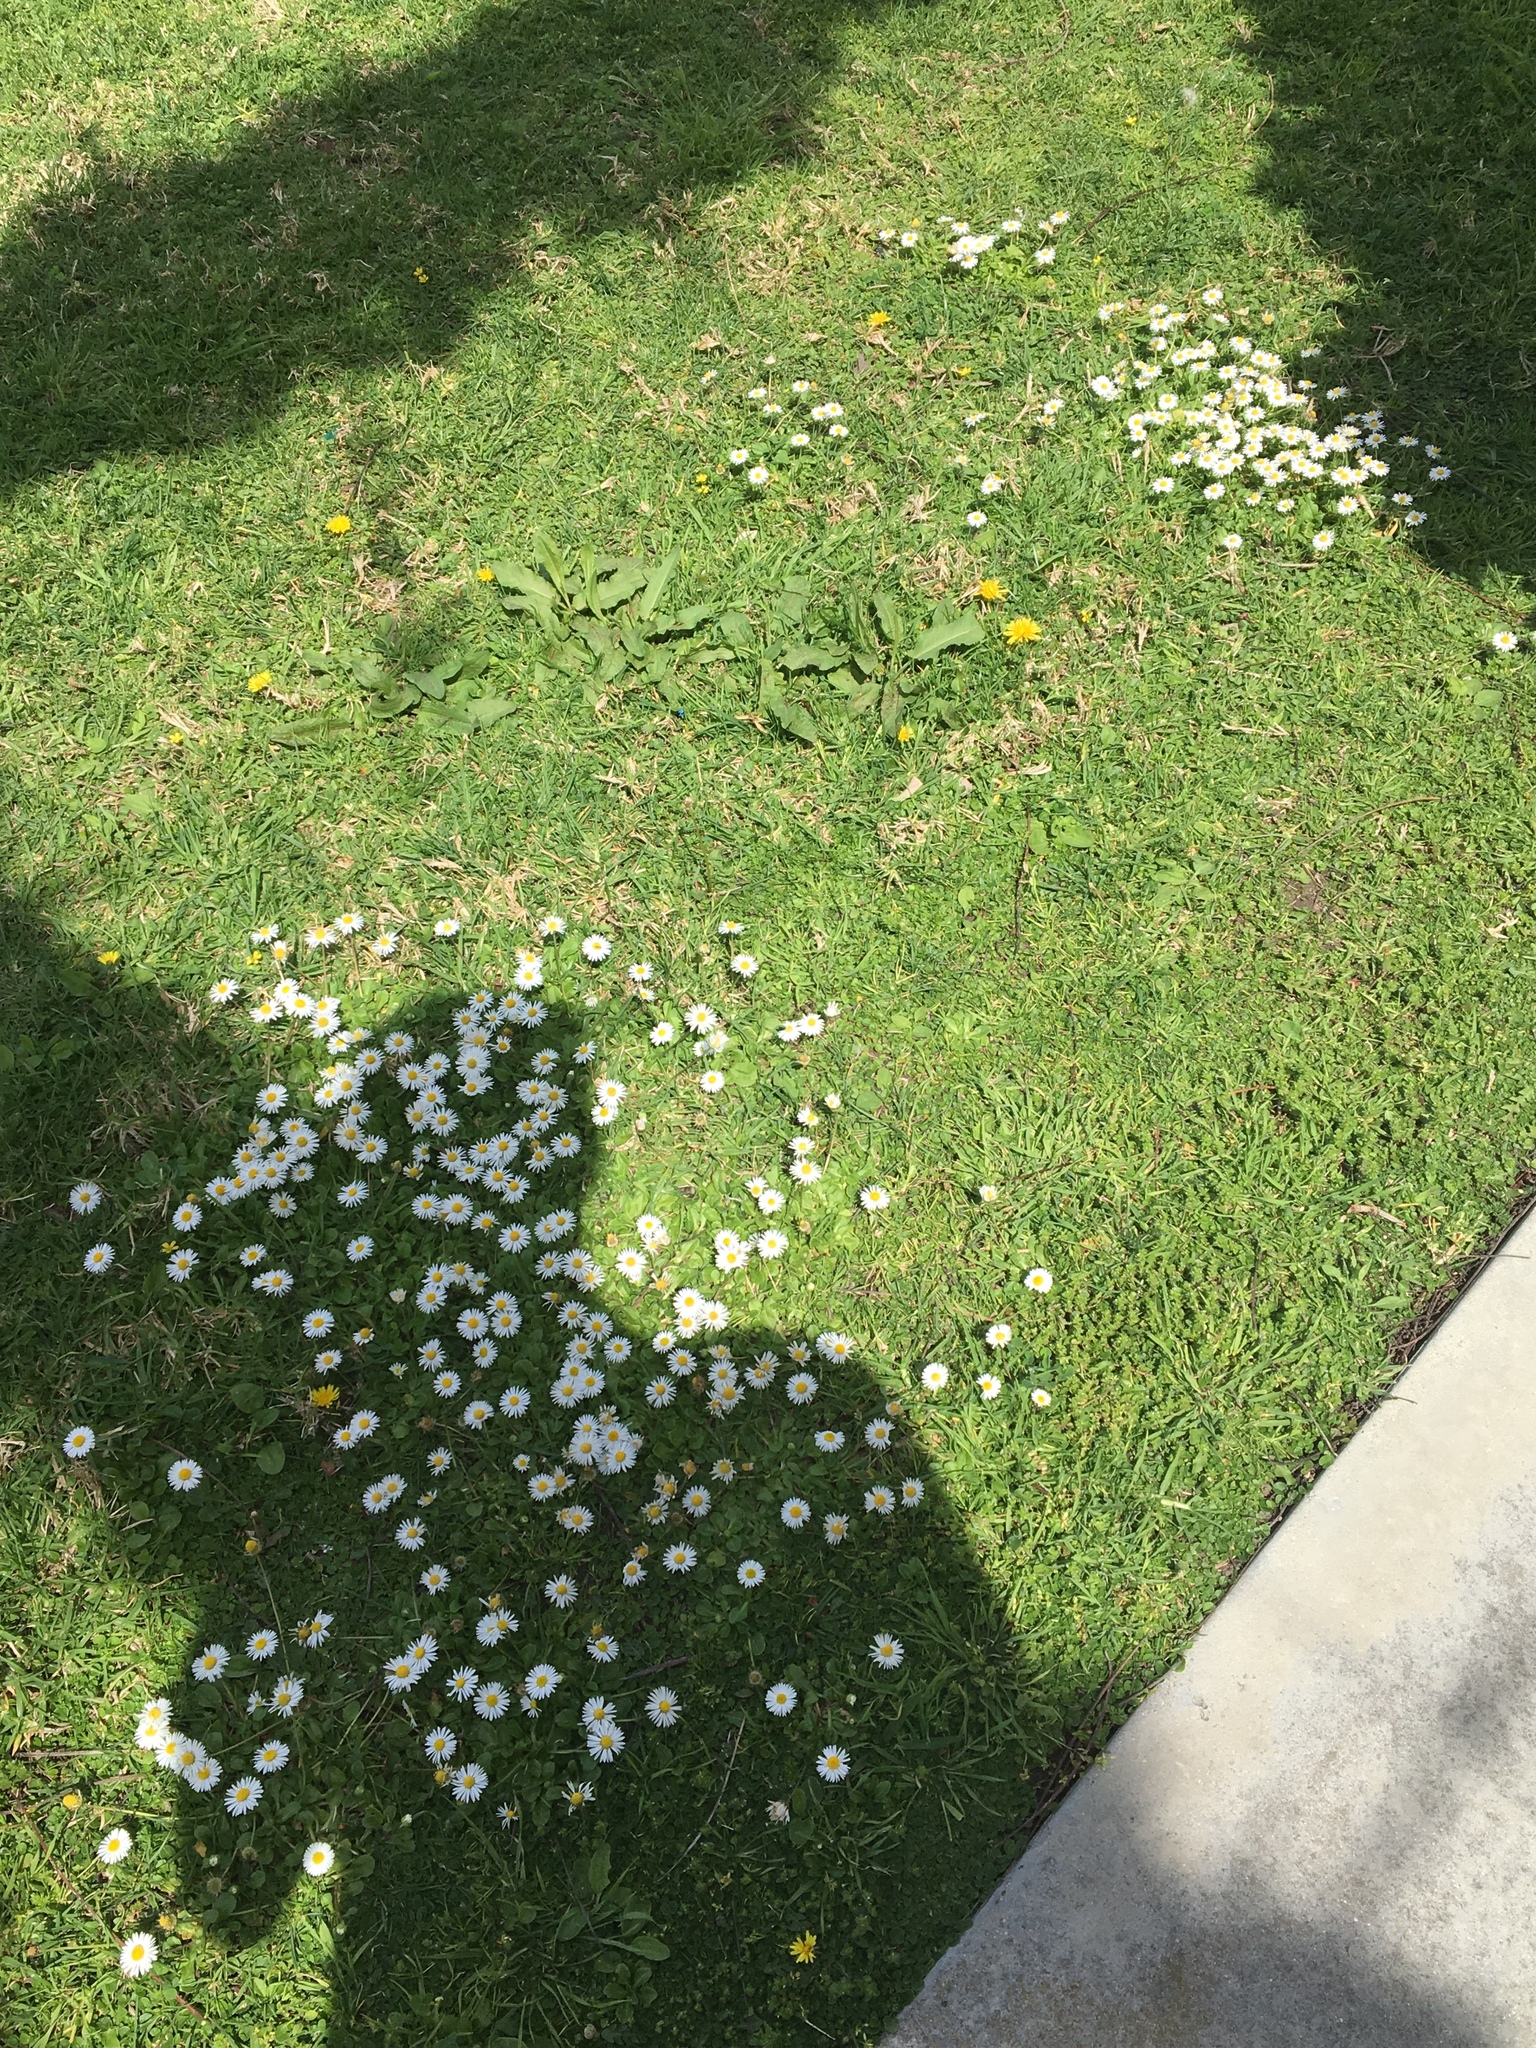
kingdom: Plantae
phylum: Tracheophyta
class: Magnoliopsida
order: Asterales
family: Asteraceae
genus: Bellis
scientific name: Bellis perennis
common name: Lawndaisy
